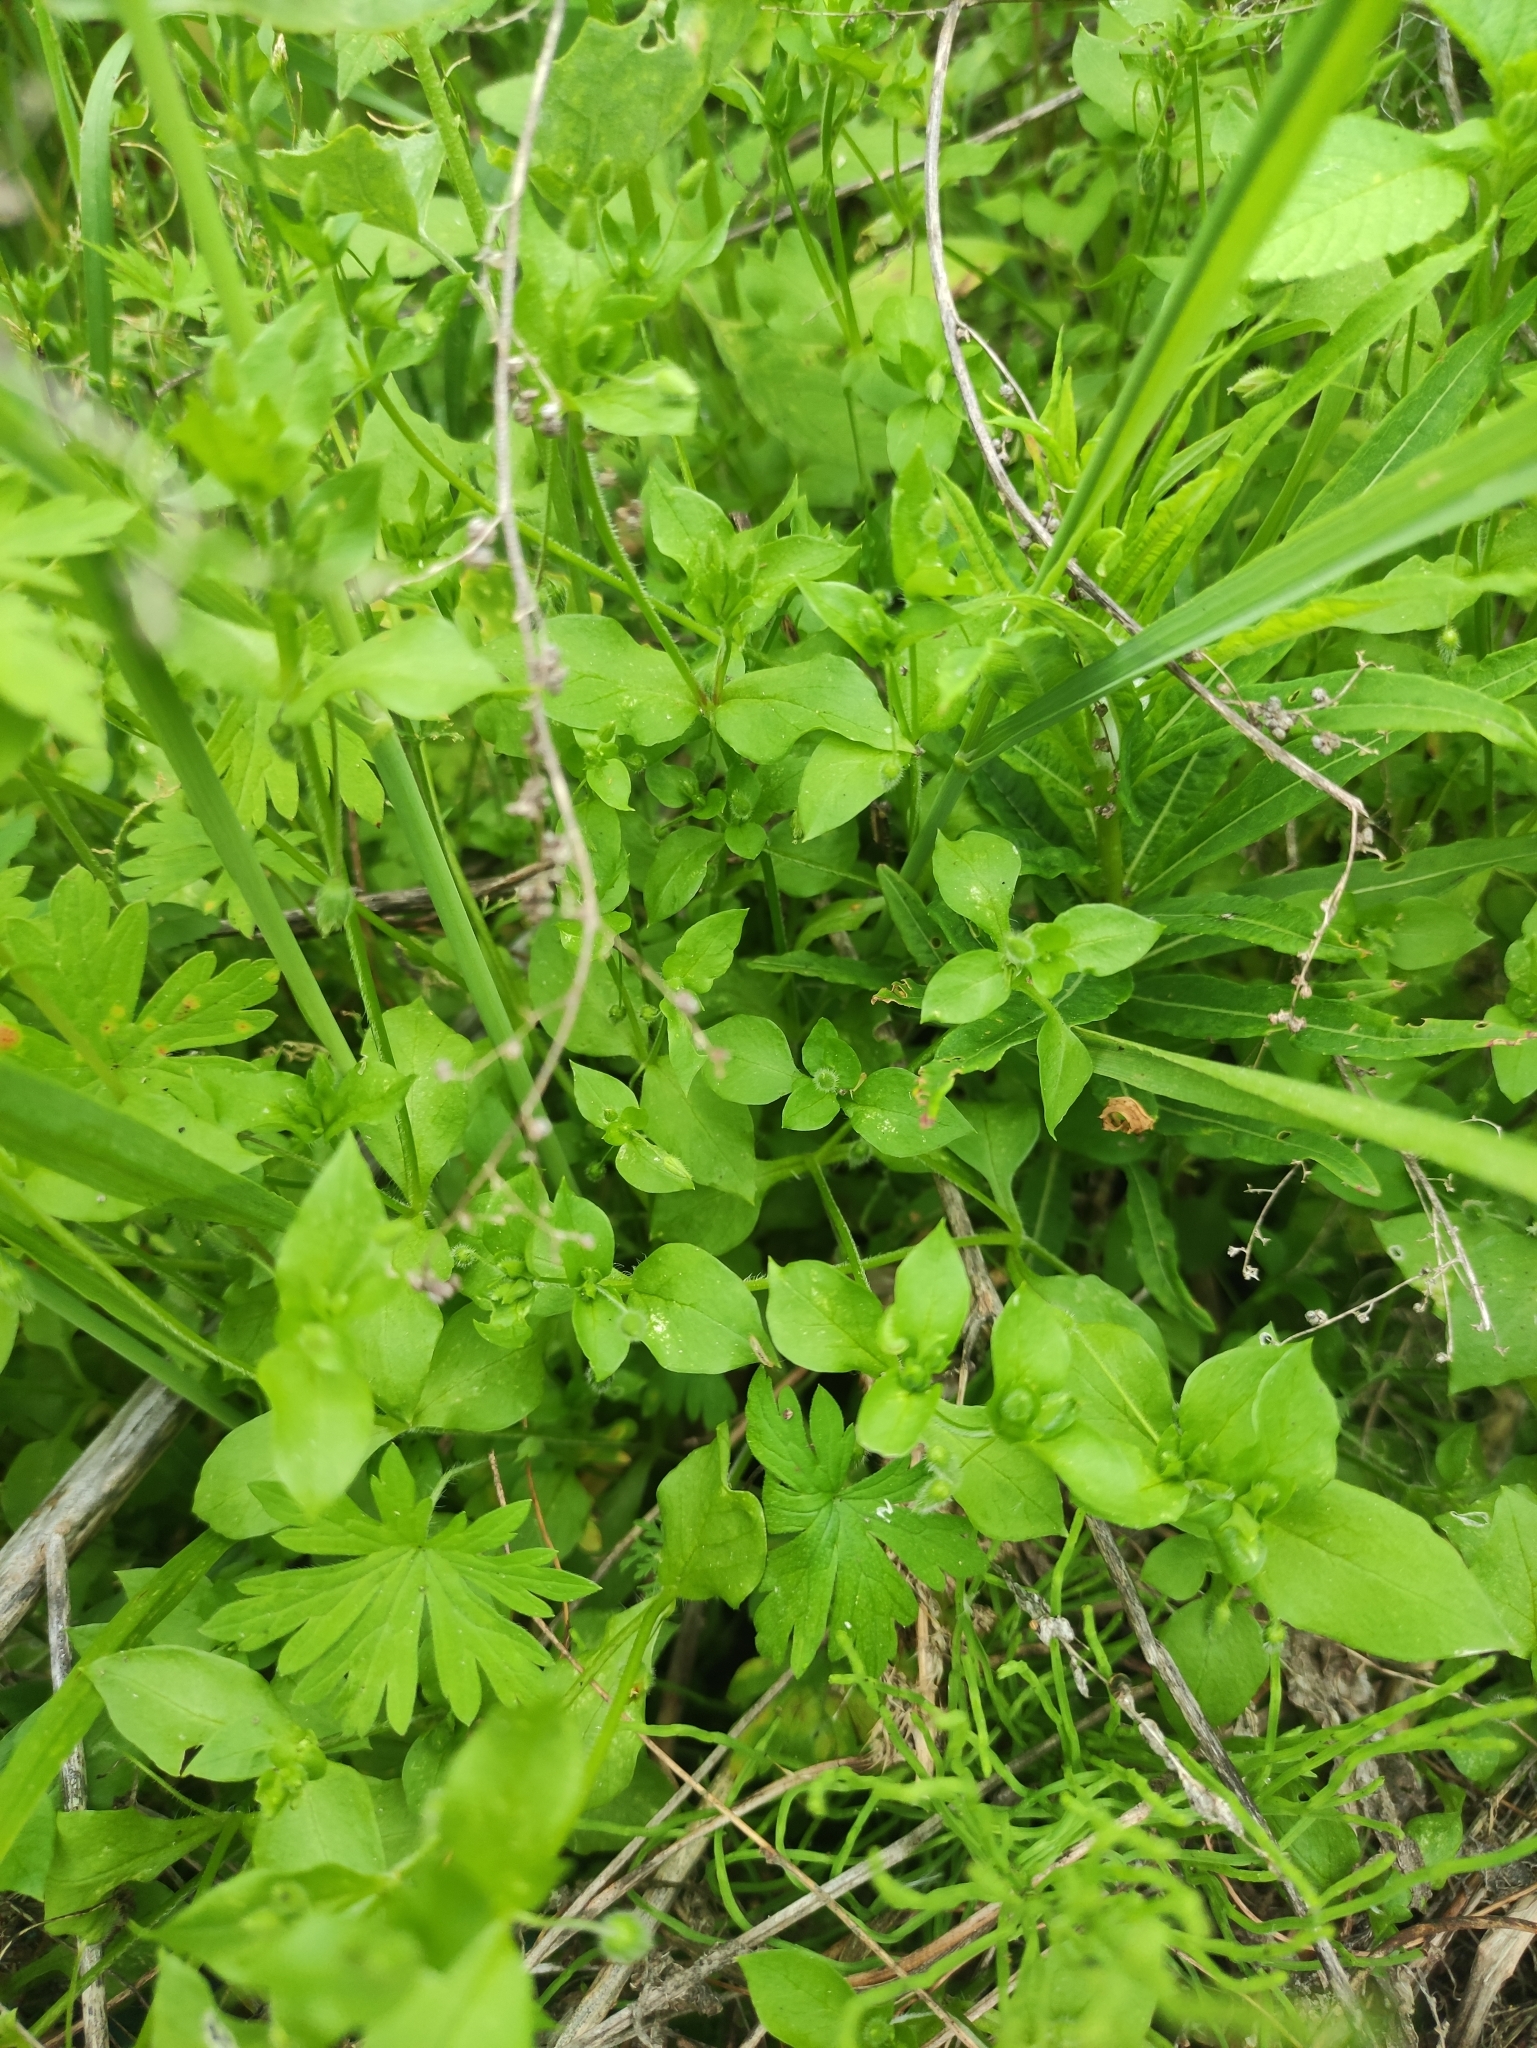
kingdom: Plantae
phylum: Tracheophyta
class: Magnoliopsida
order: Caryophyllales
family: Caryophyllaceae
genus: Stellaria
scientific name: Stellaria media
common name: Common chickweed
